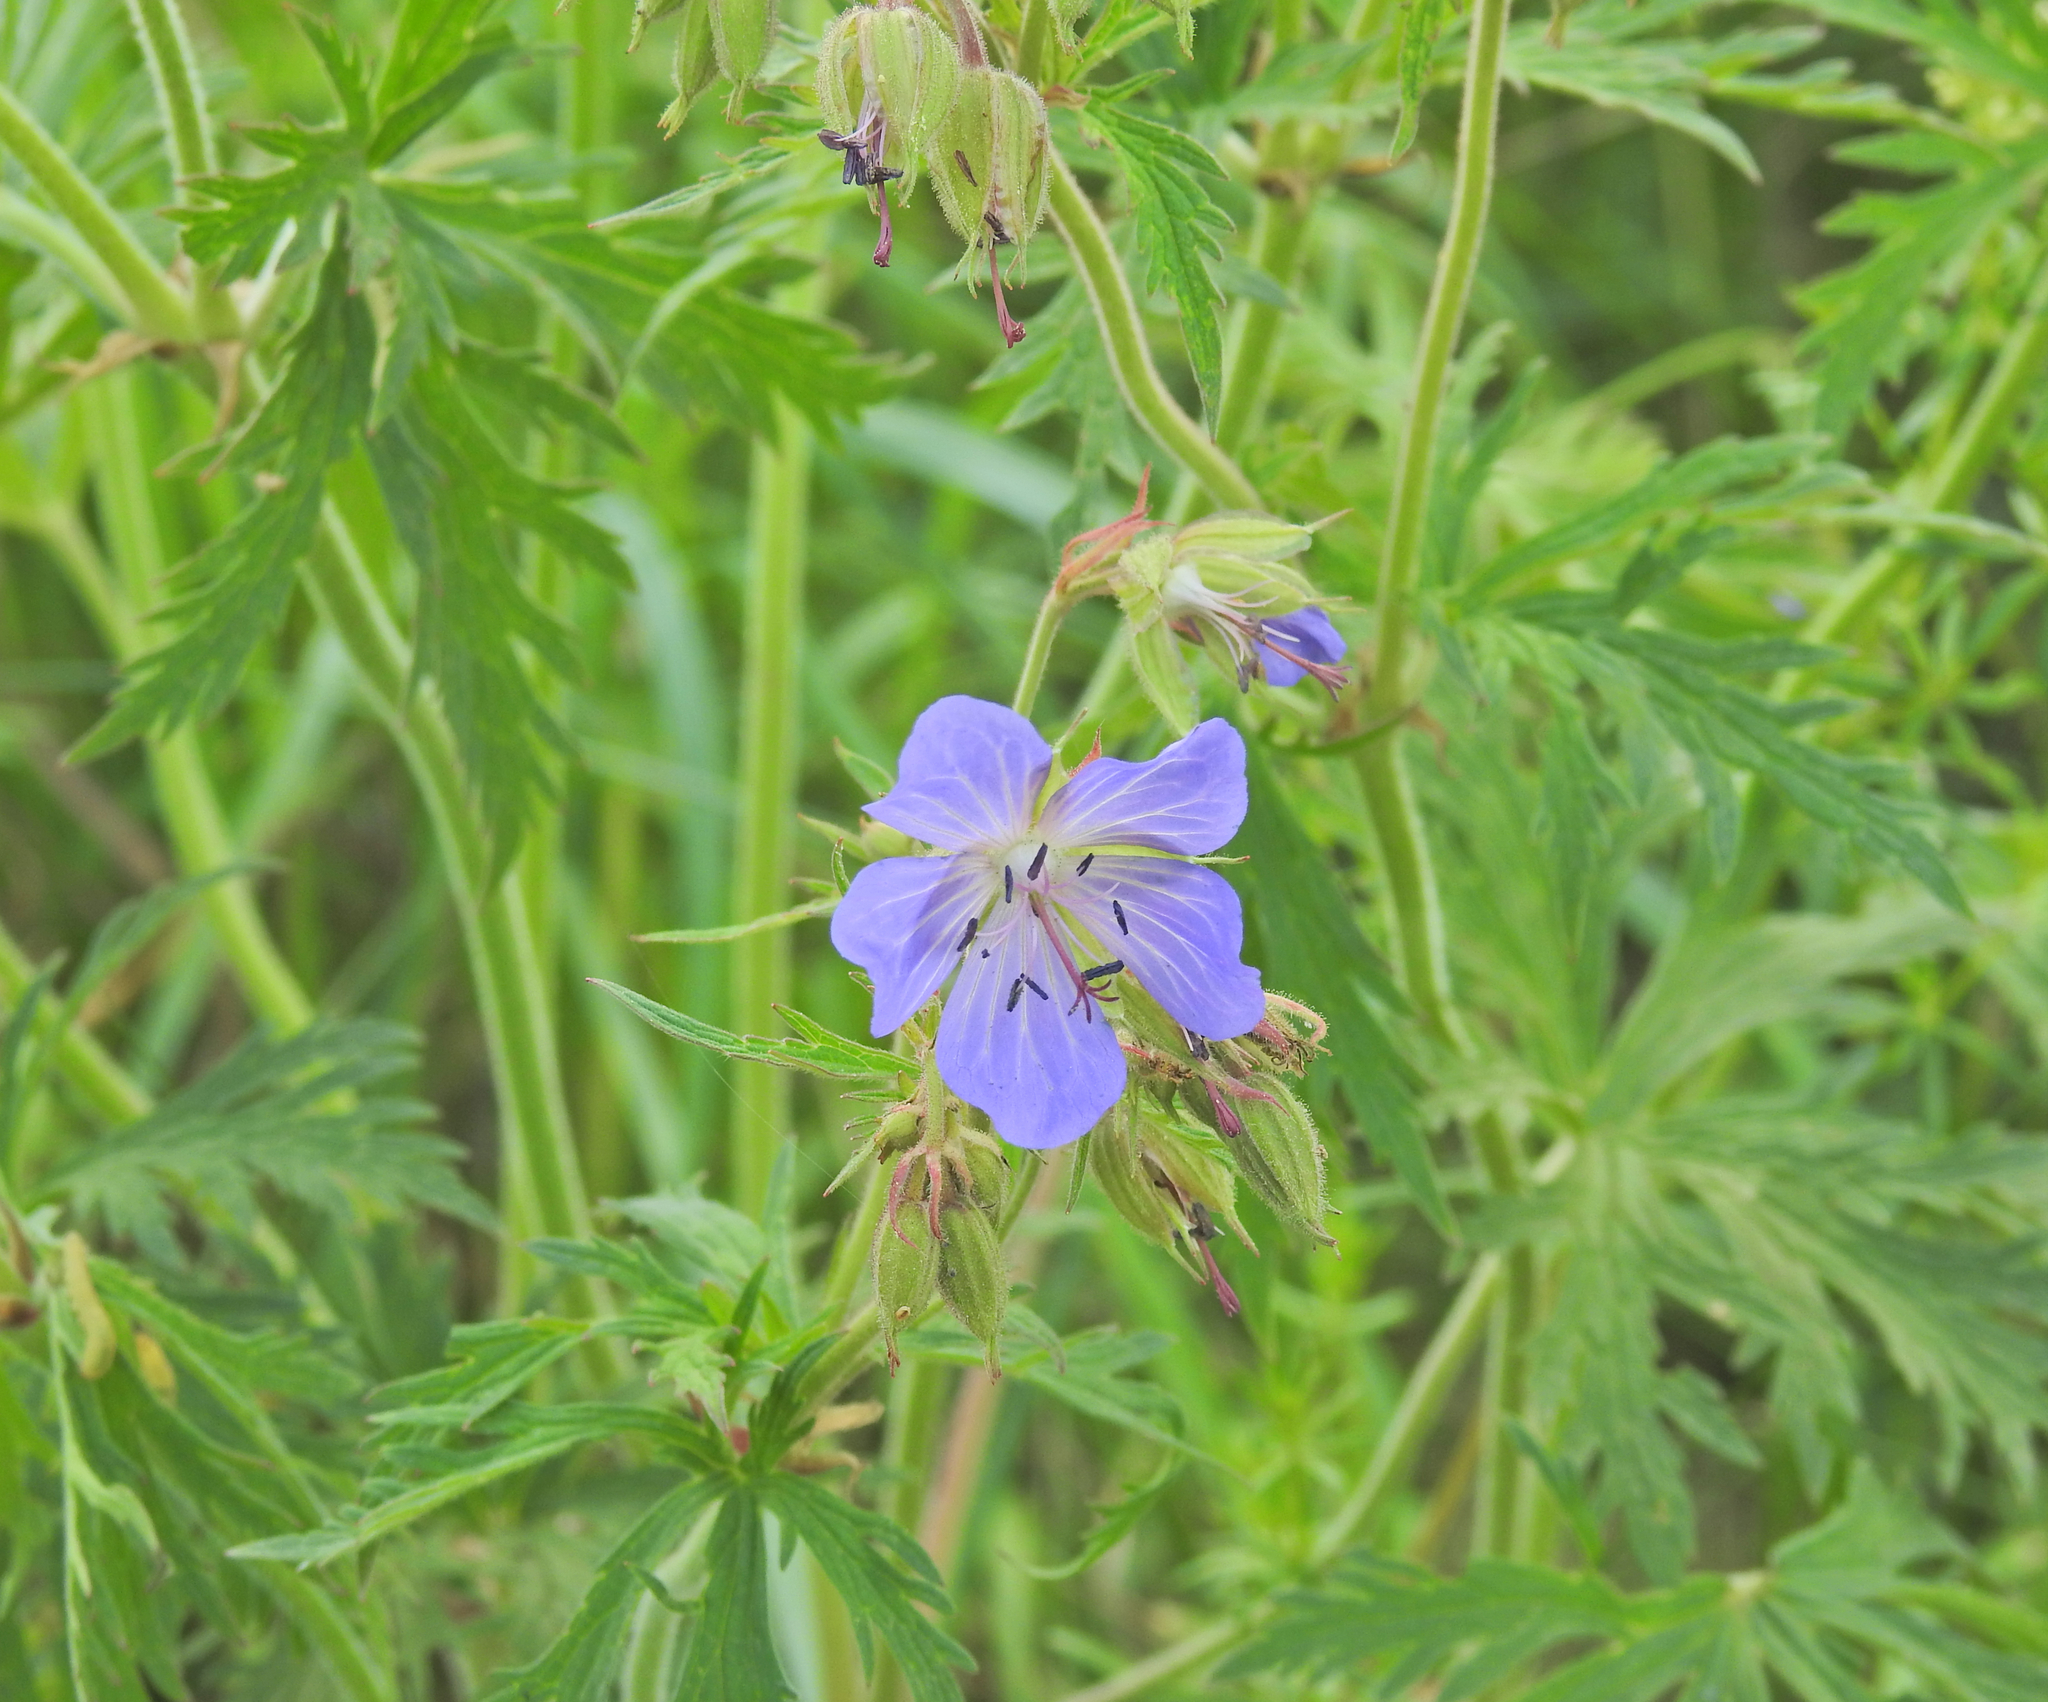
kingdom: Plantae
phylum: Tracheophyta
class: Magnoliopsida
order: Geraniales
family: Geraniaceae
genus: Geranium
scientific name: Geranium pratense
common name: Meadow crane's-bill
